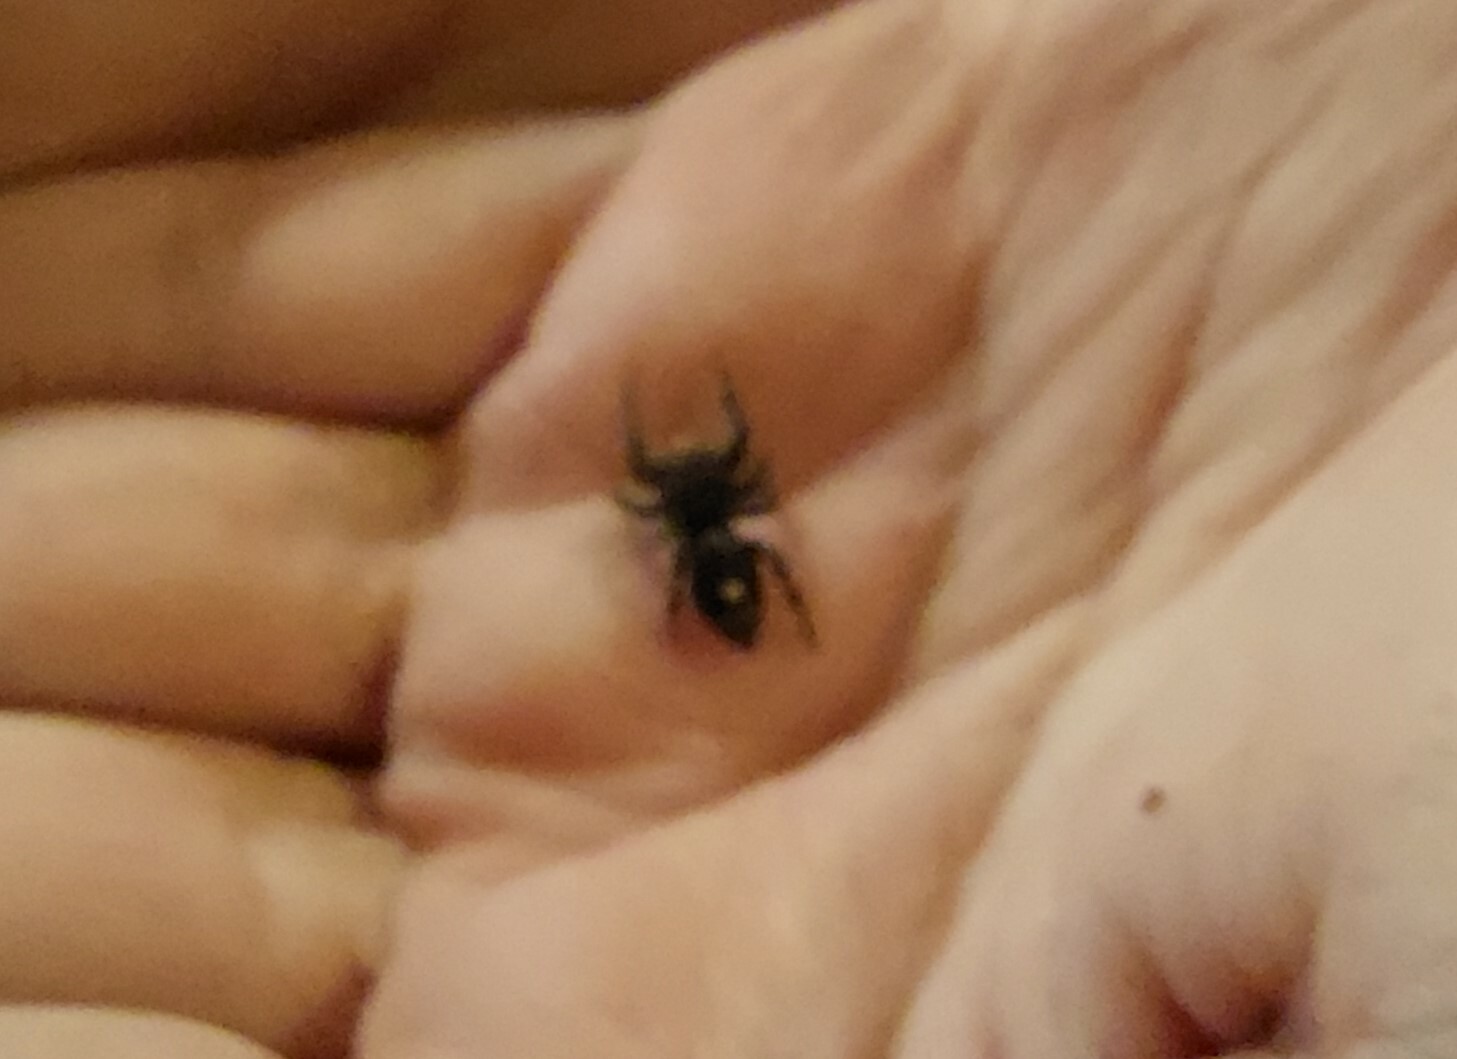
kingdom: Animalia
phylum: Arthropoda
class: Arachnida
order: Araneae
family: Salticidae
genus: Phidippus
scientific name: Phidippus audax
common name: Bold jumper
